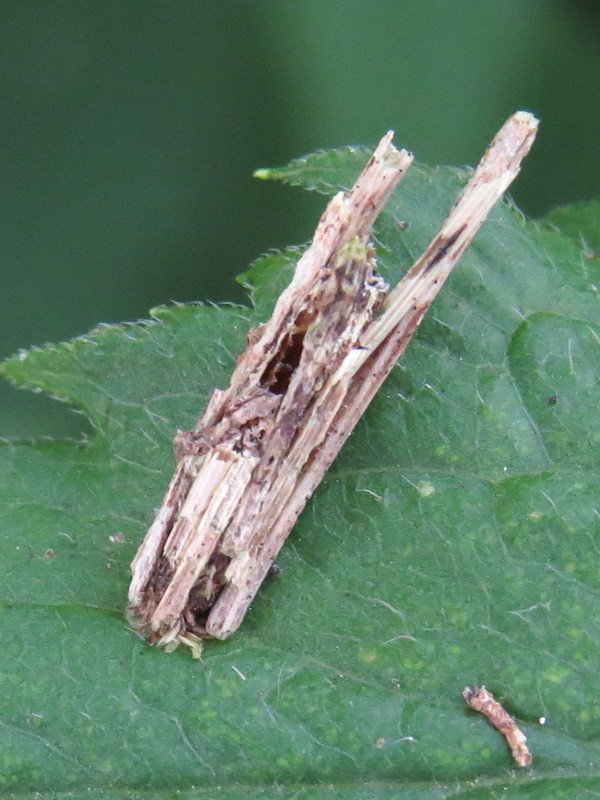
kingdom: Animalia
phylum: Arthropoda
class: Insecta
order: Lepidoptera
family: Psychidae
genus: Psyche
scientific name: Psyche casta
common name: Common sweep
